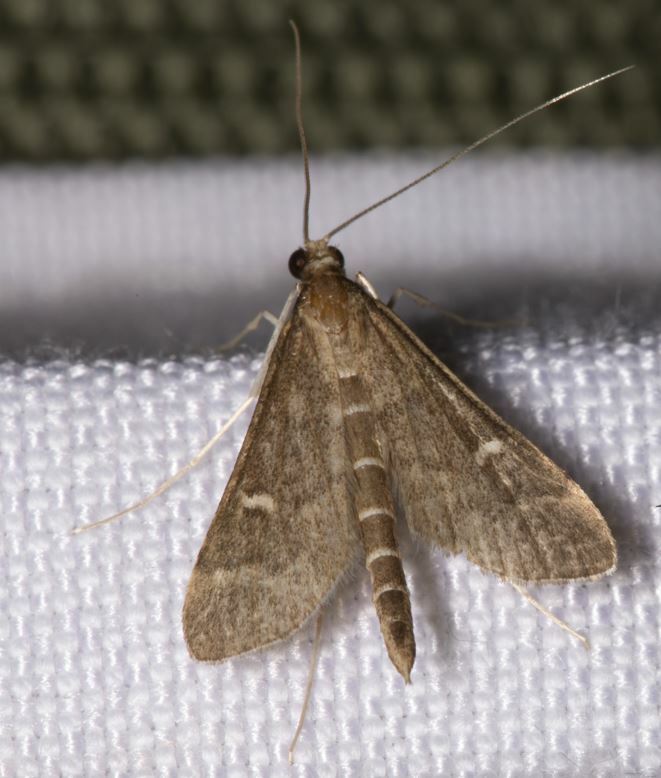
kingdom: Animalia
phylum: Arthropoda
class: Insecta
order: Lepidoptera
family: Crambidae
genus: Stenia
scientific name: Stenia Dolicharthria punctalis
